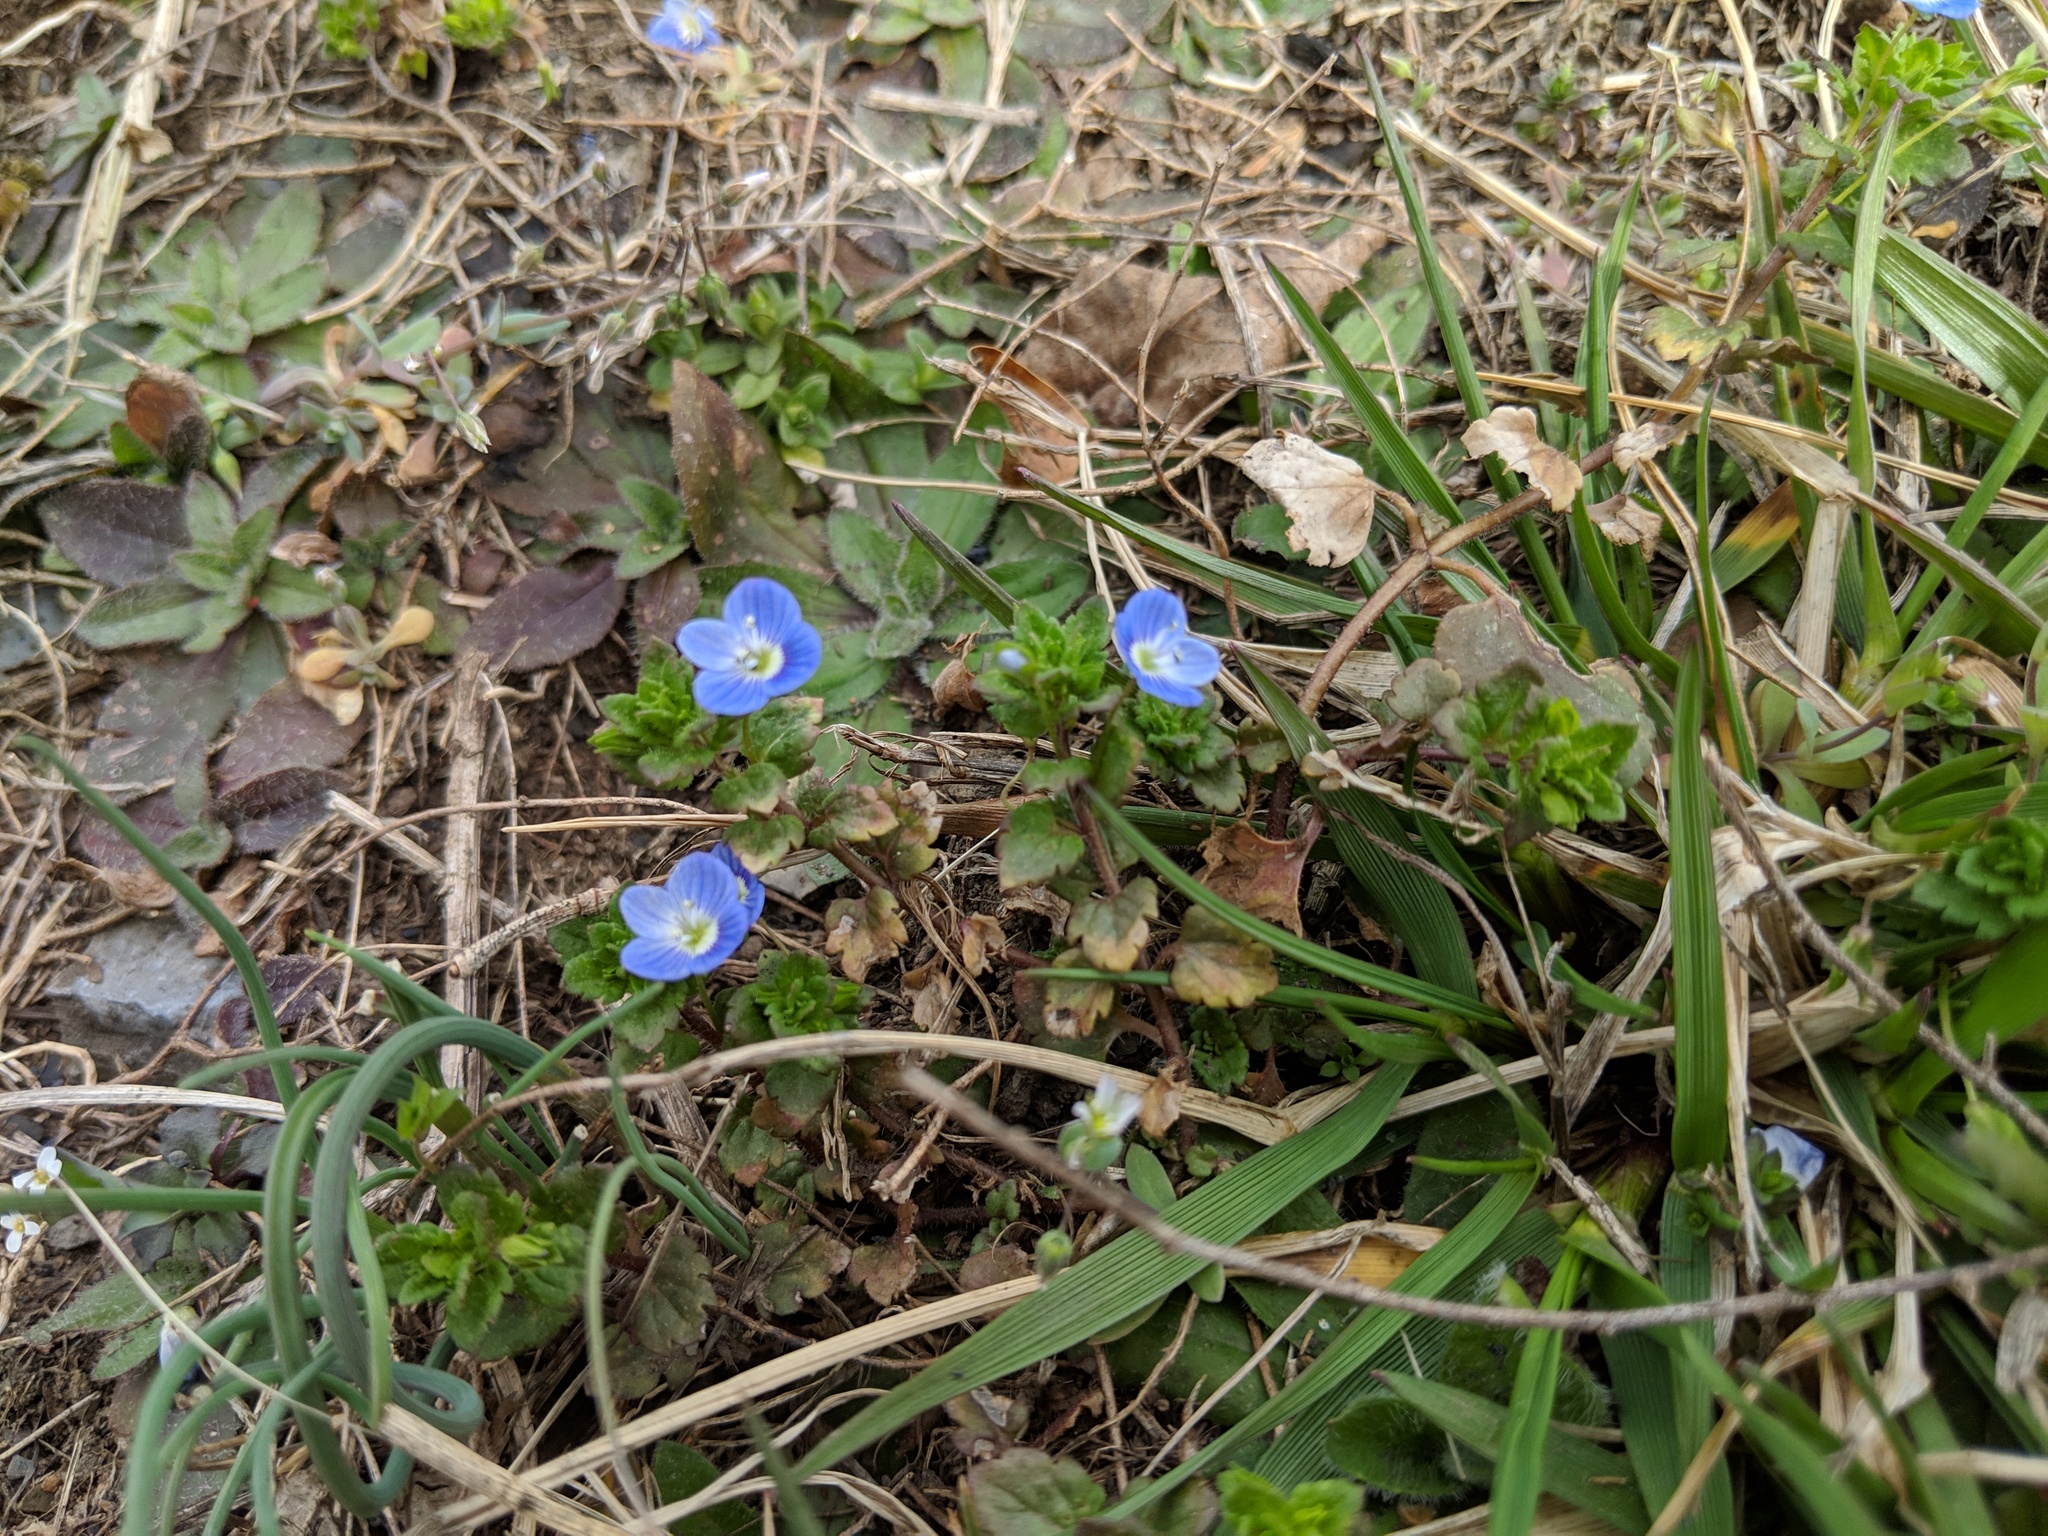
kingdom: Plantae
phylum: Tracheophyta
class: Magnoliopsida
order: Lamiales
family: Plantaginaceae
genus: Veronica
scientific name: Veronica persica
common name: Common field-speedwell
